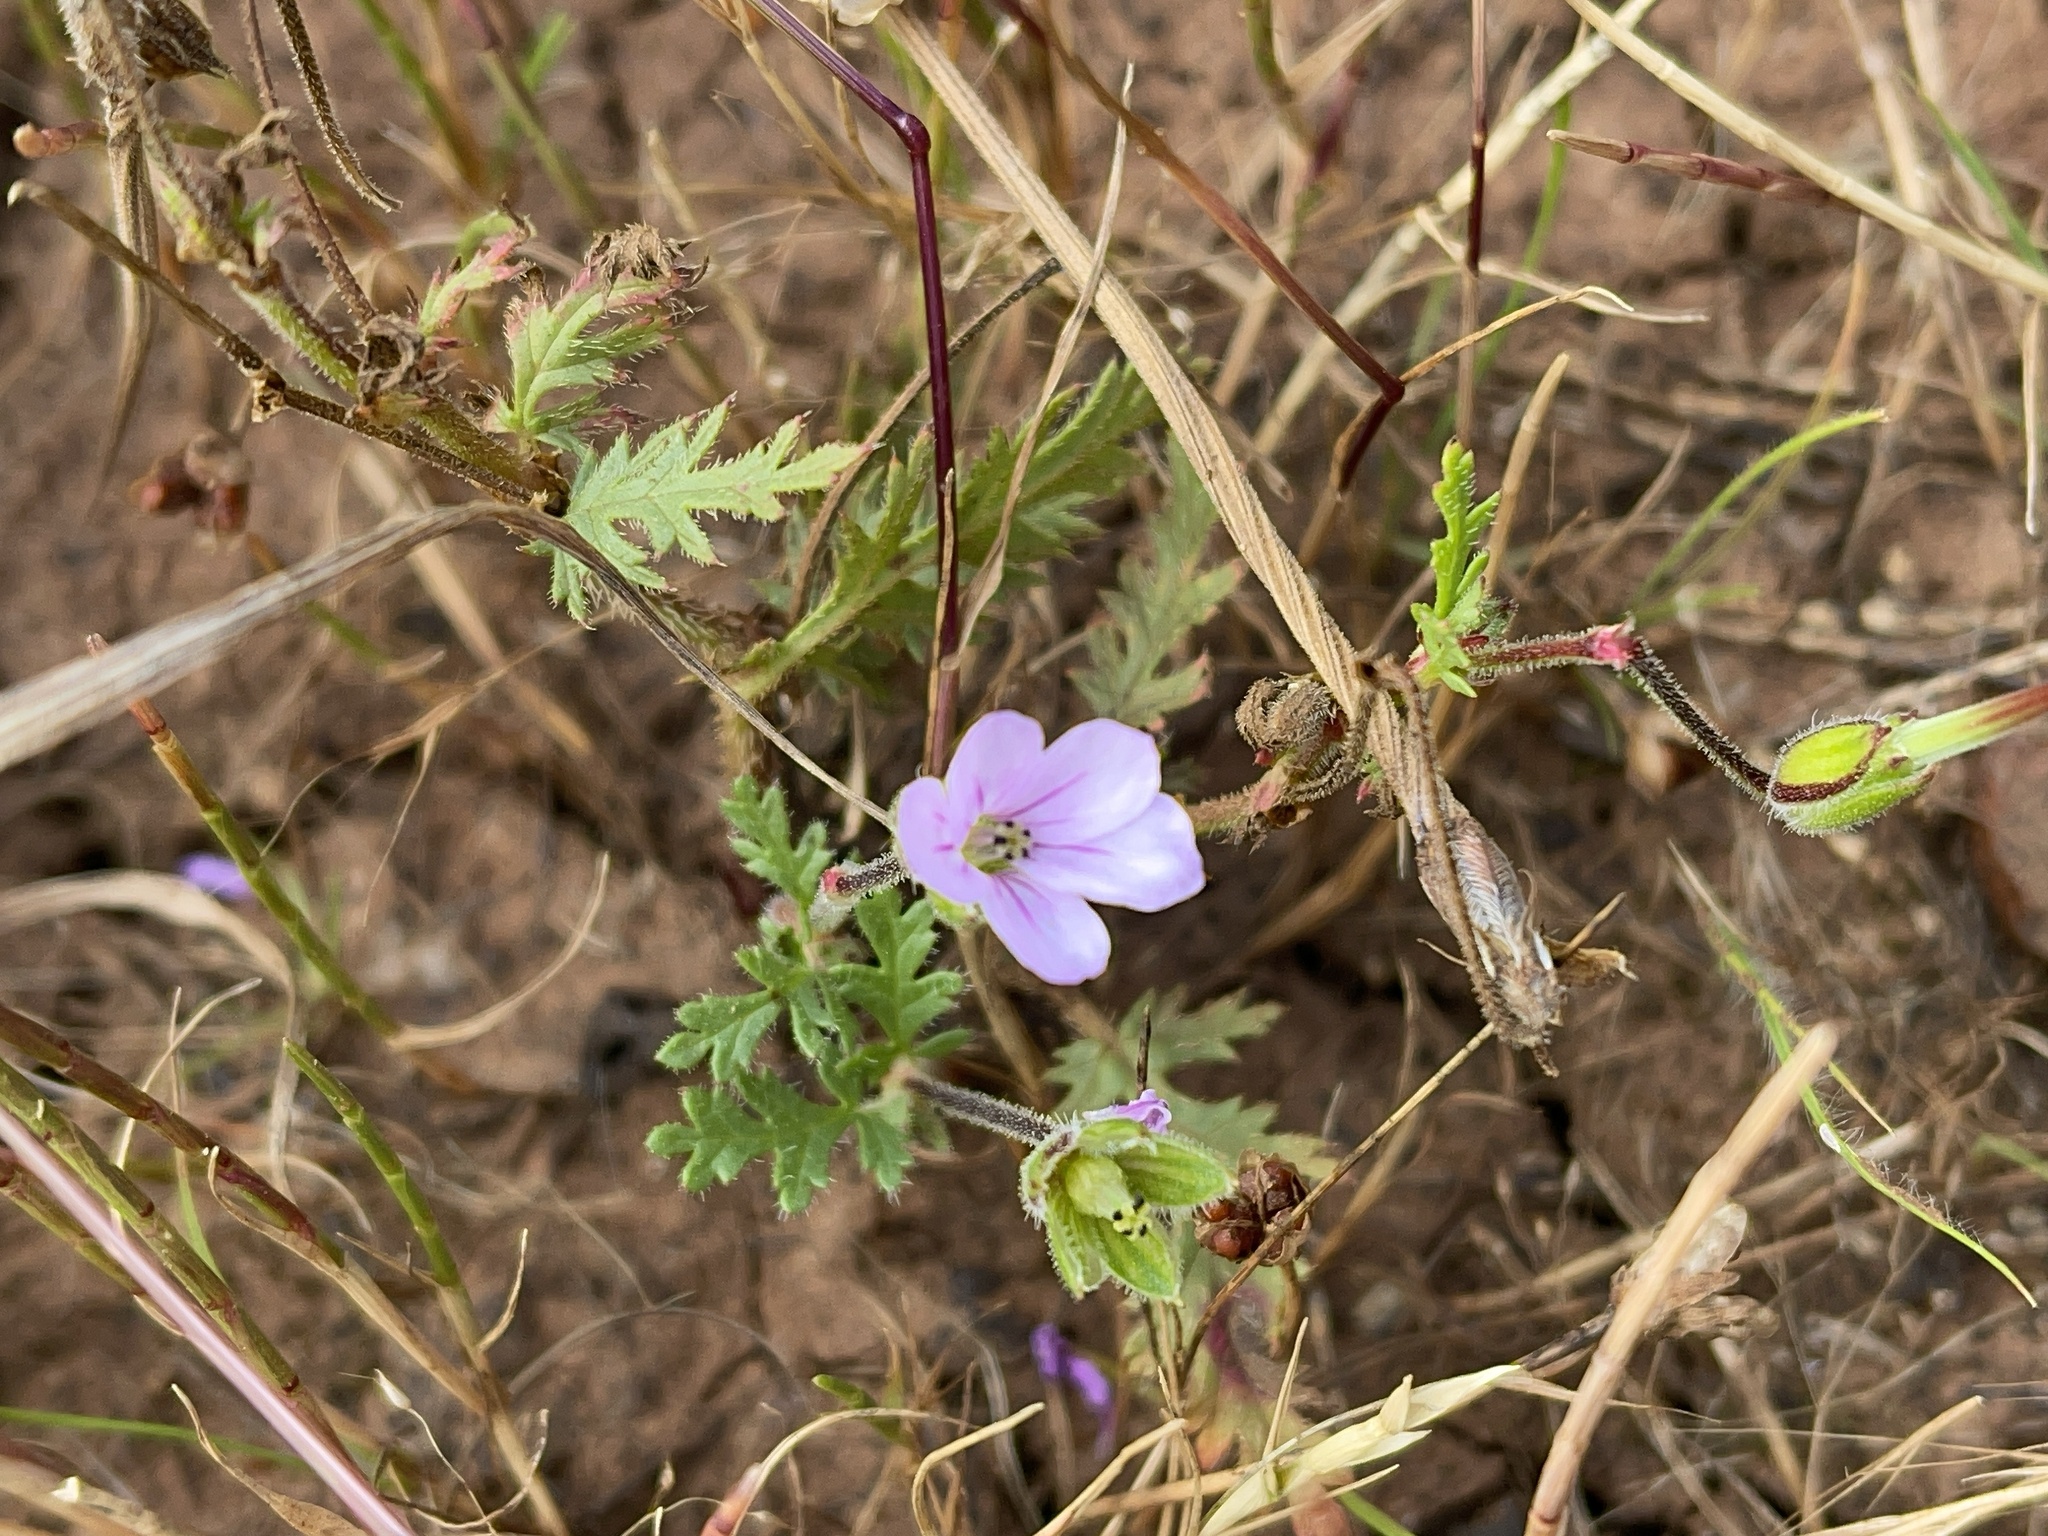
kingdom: Plantae
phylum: Tracheophyta
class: Magnoliopsida
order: Geraniales
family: Geraniaceae
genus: Erodium
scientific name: Erodium botrys
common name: Mediterranean stork's-bill
